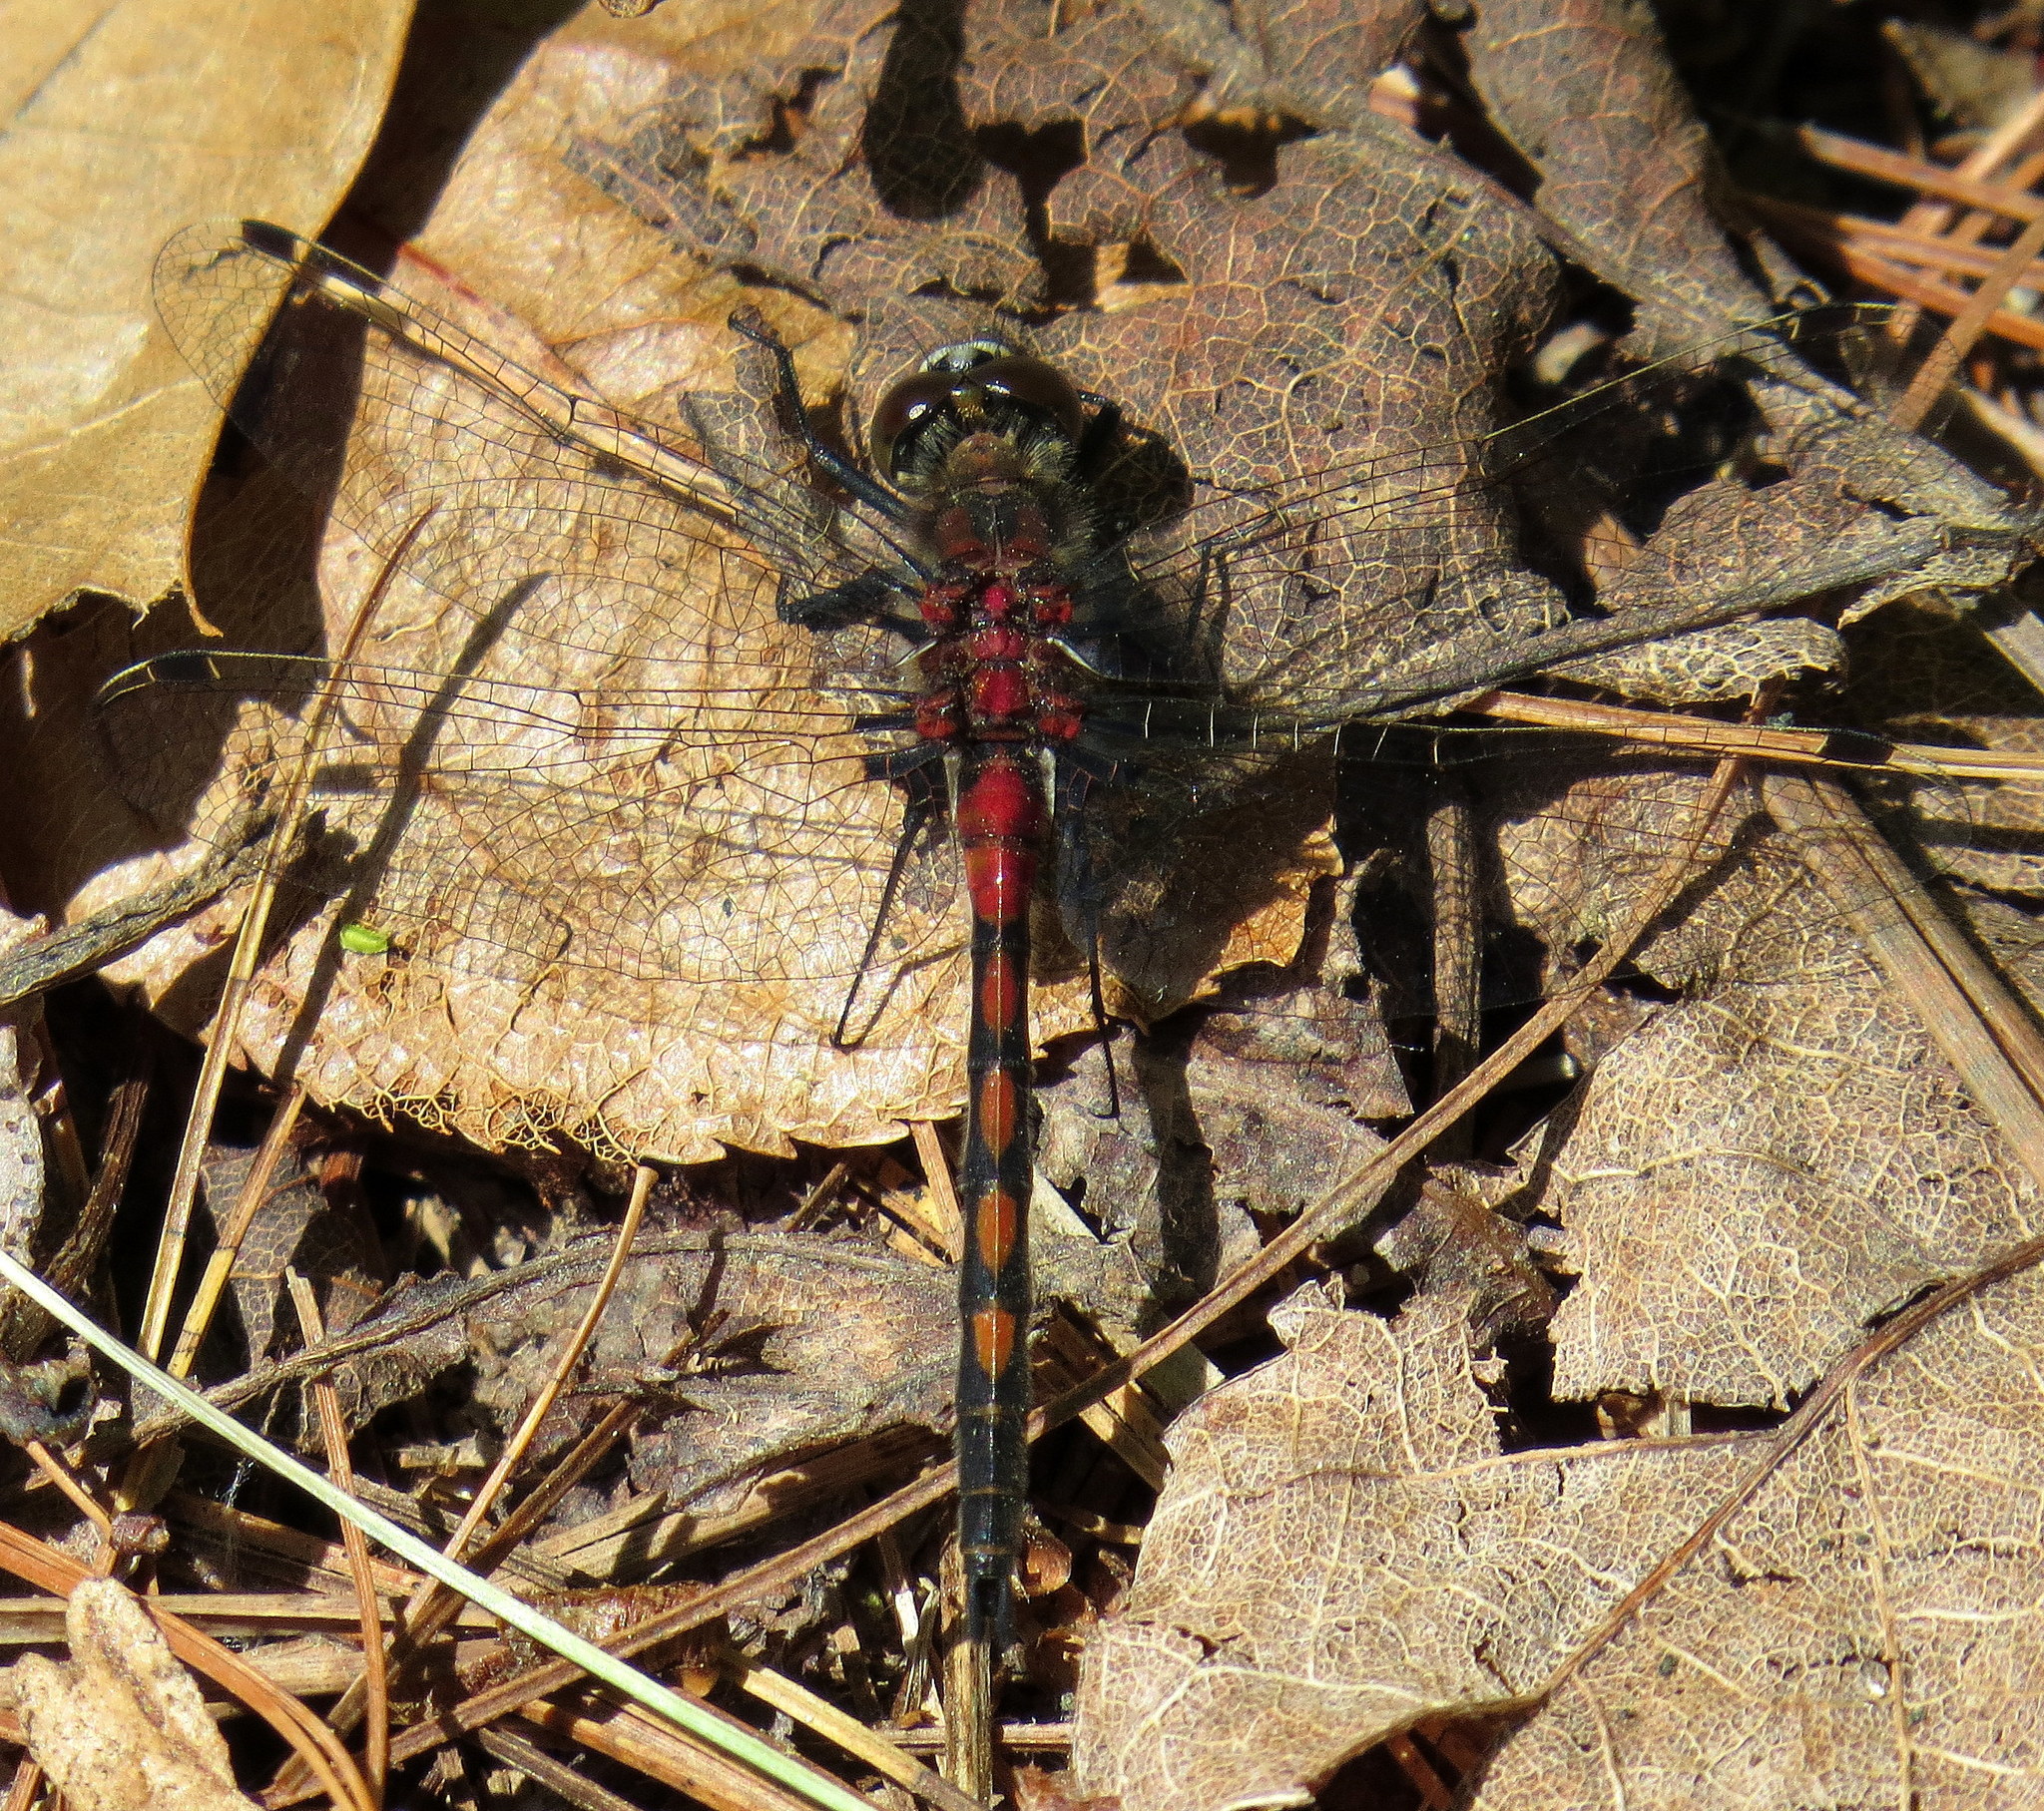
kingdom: Animalia
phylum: Arthropoda
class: Insecta
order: Odonata
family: Libellulidae
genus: Leucorrhinia
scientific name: Leucorrhinia hudsonica
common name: Hudsonian whiteface
